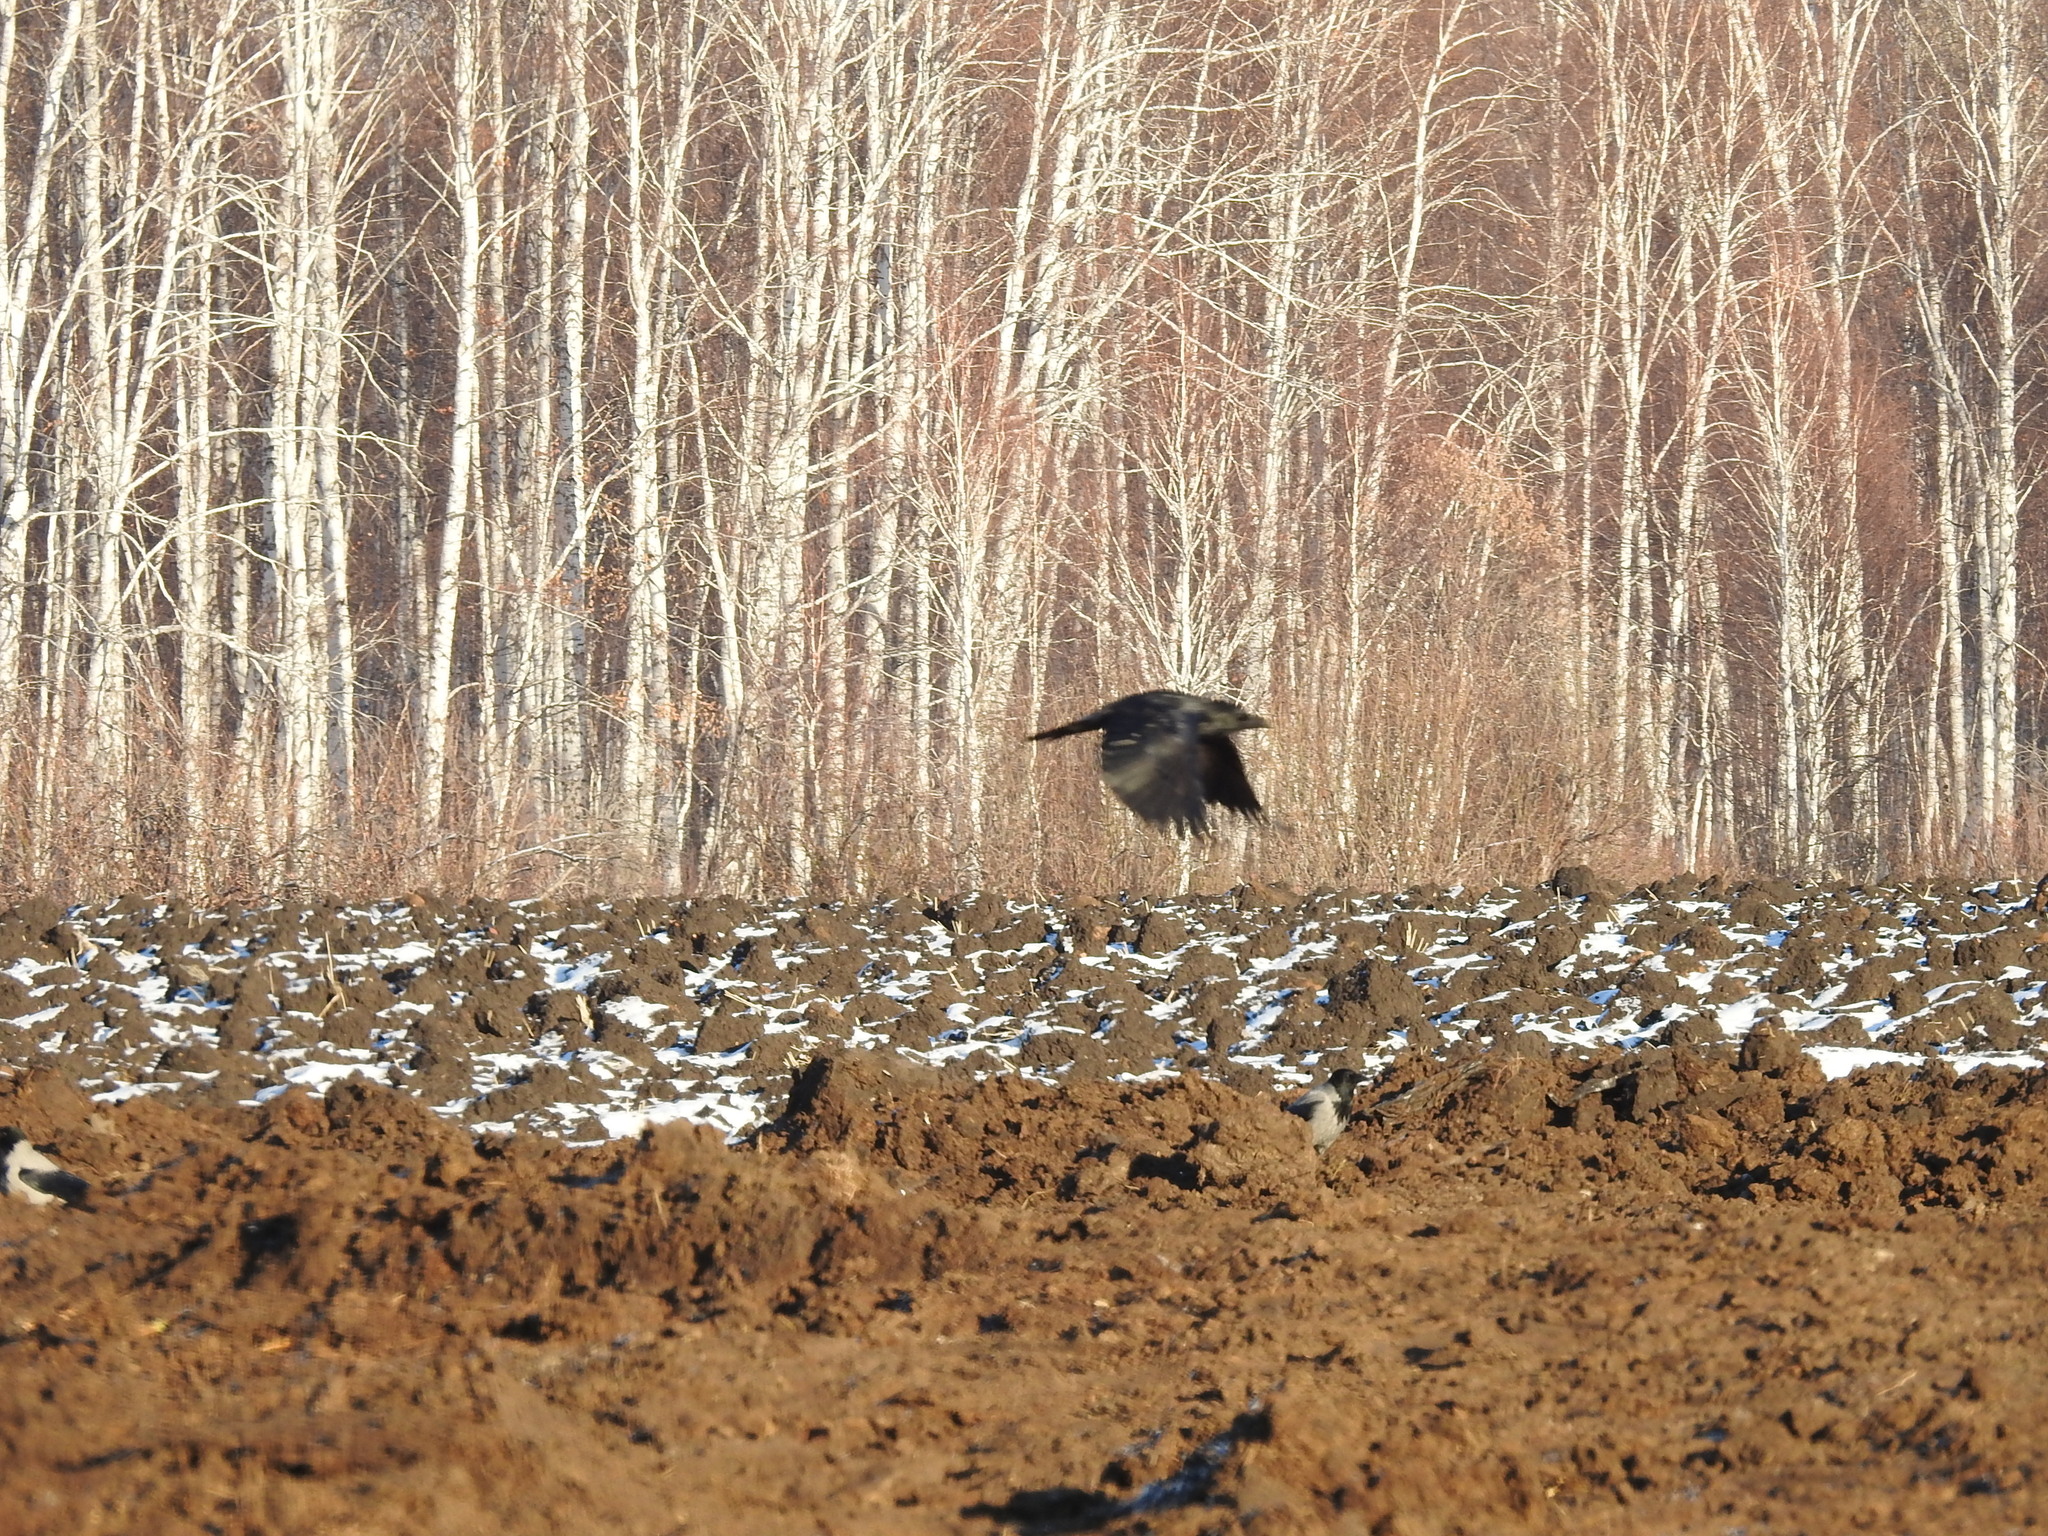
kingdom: Animalia
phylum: Chordata
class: Aves
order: Passeriformes
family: Corvidae
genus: Corvus
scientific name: Corvus corax
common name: Common raven
